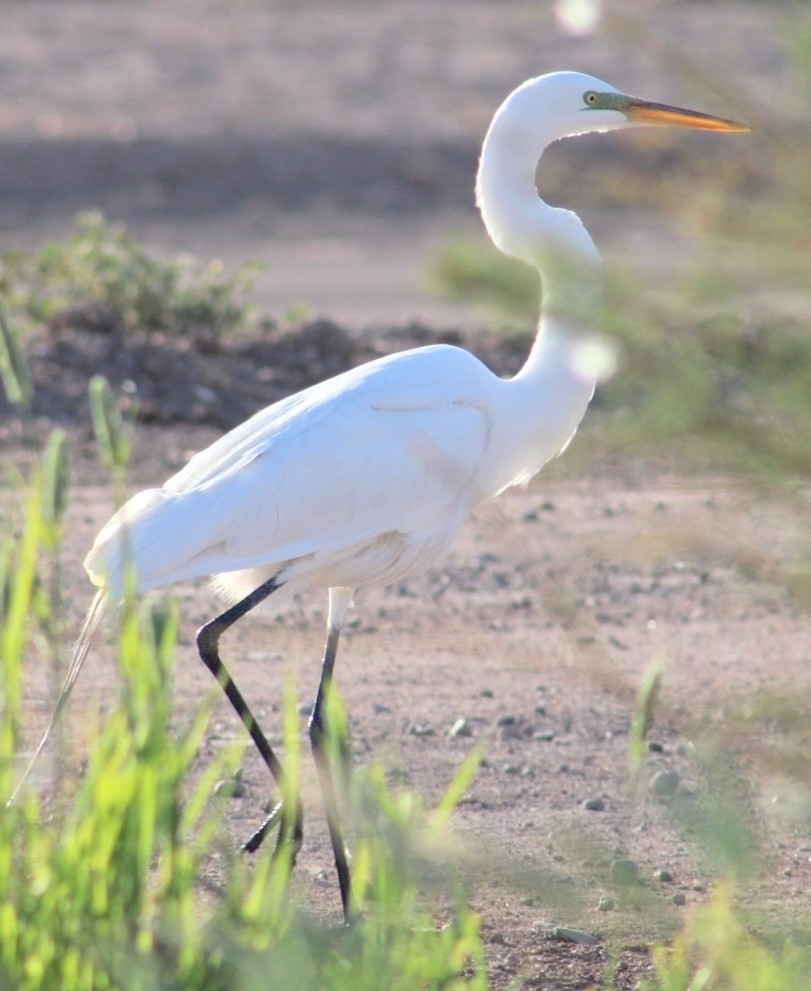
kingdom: Animalia
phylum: Chordata
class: Aves
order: Pelecaniformes
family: Ardeidae
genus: Ardea
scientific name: Ardea alba
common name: Great egret
